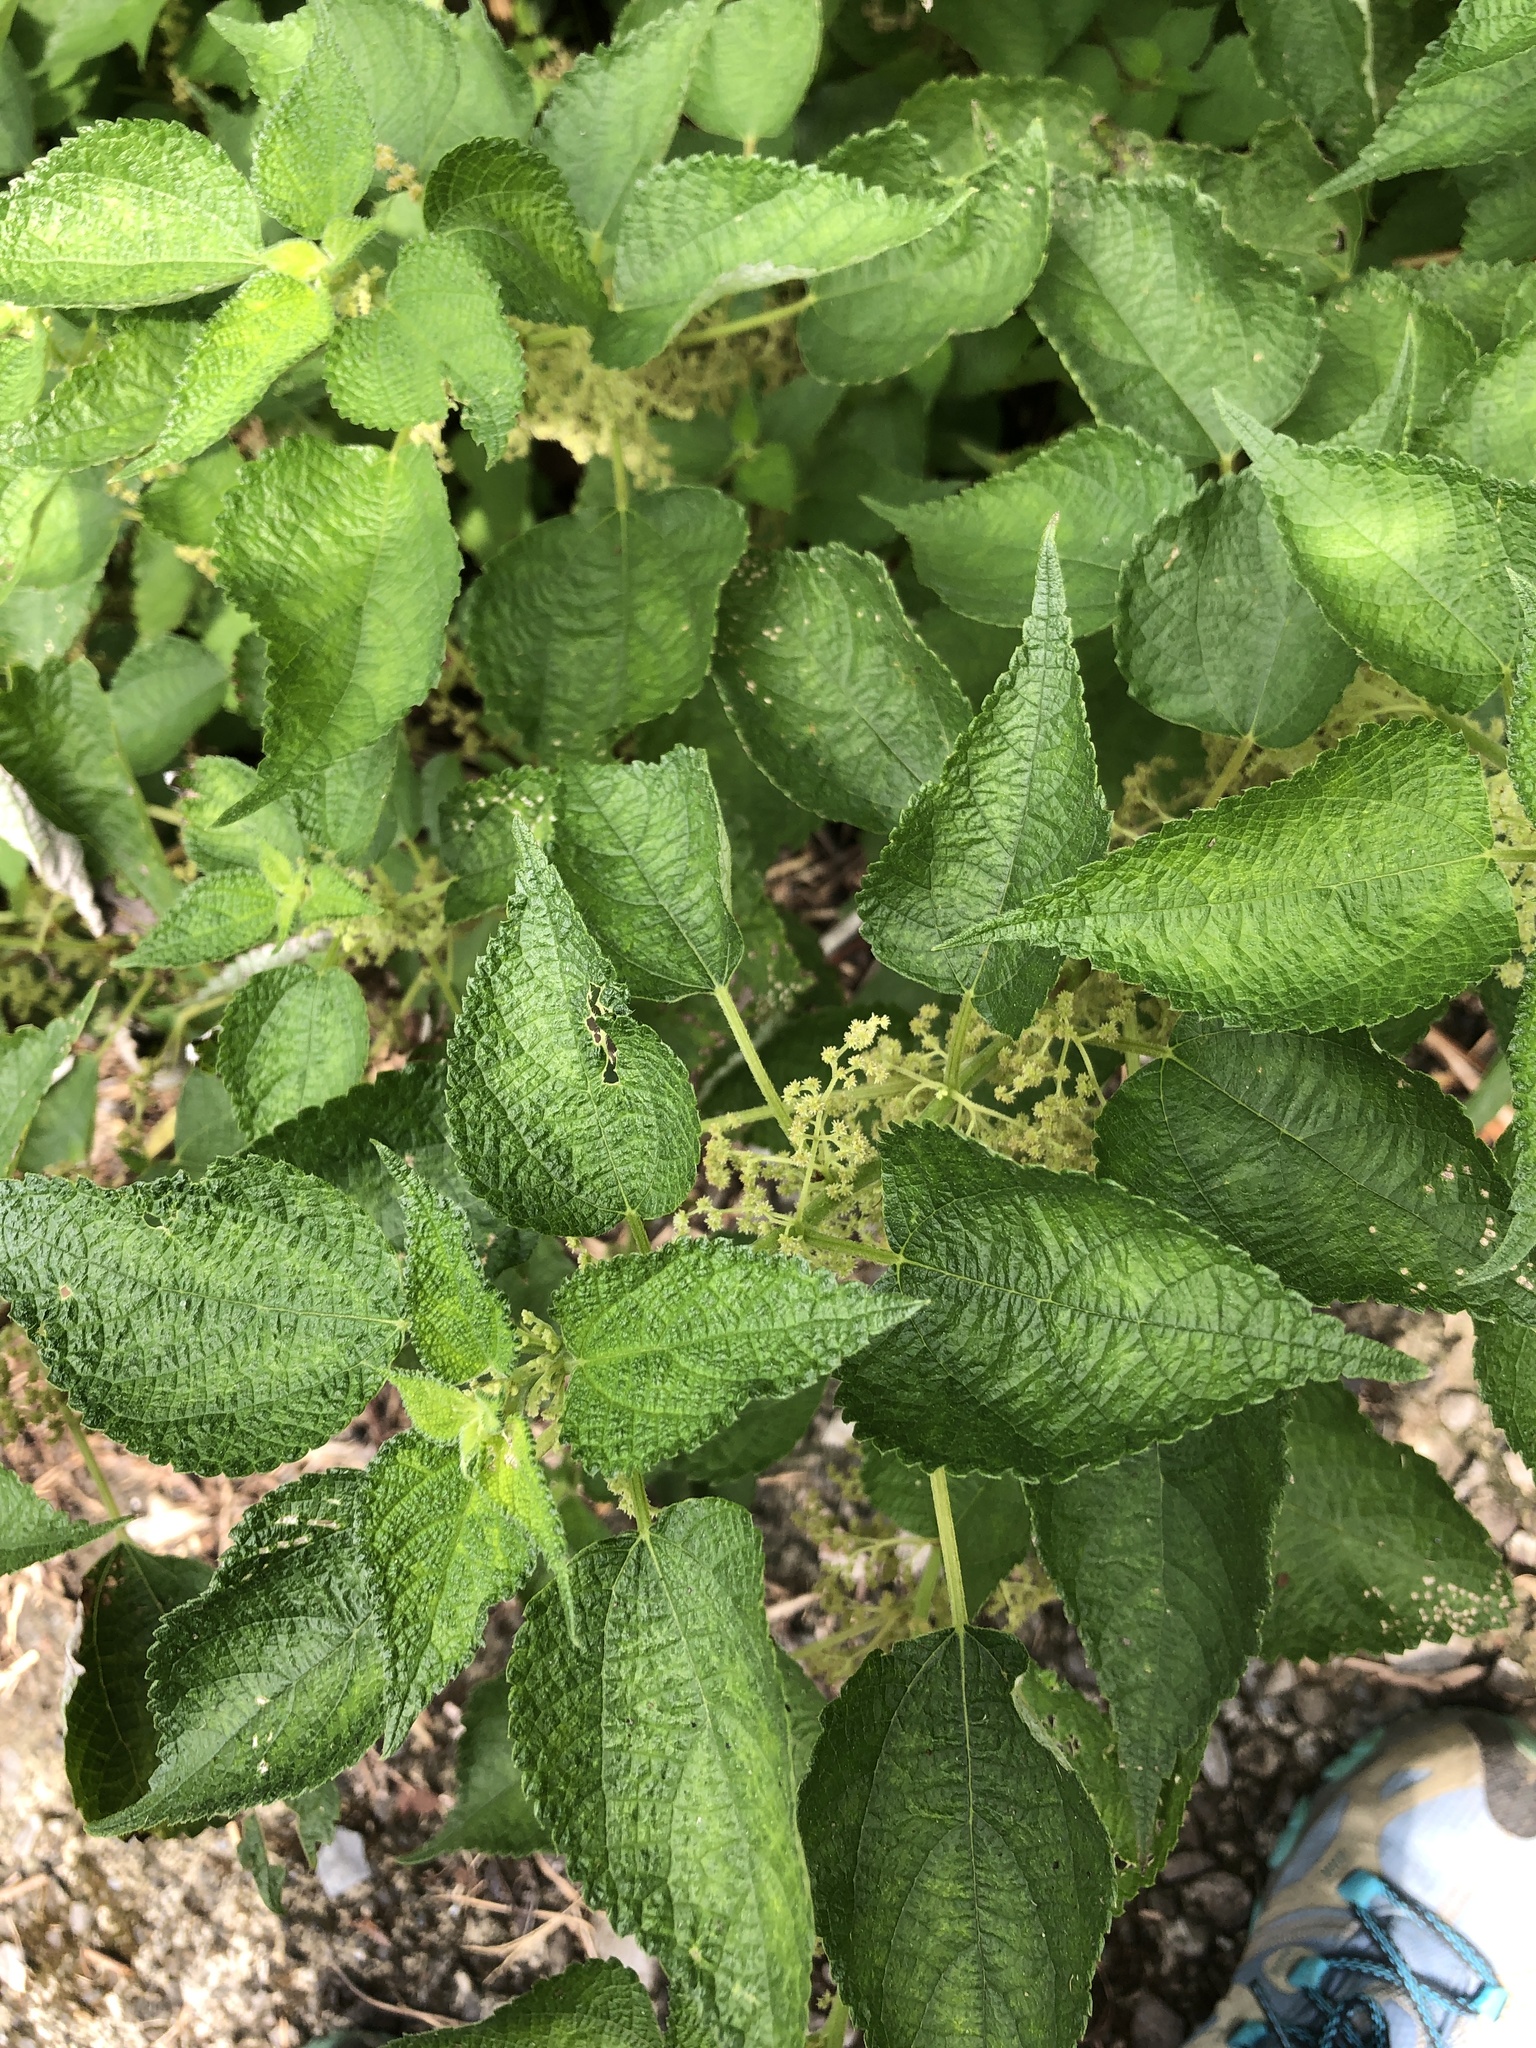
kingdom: Plantae
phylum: Tracheophyta
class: Magnoliopsida
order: Rosales
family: Urticaceae
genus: Boehmeria
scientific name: Boehmeria nivea
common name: Ramie chinese grass
